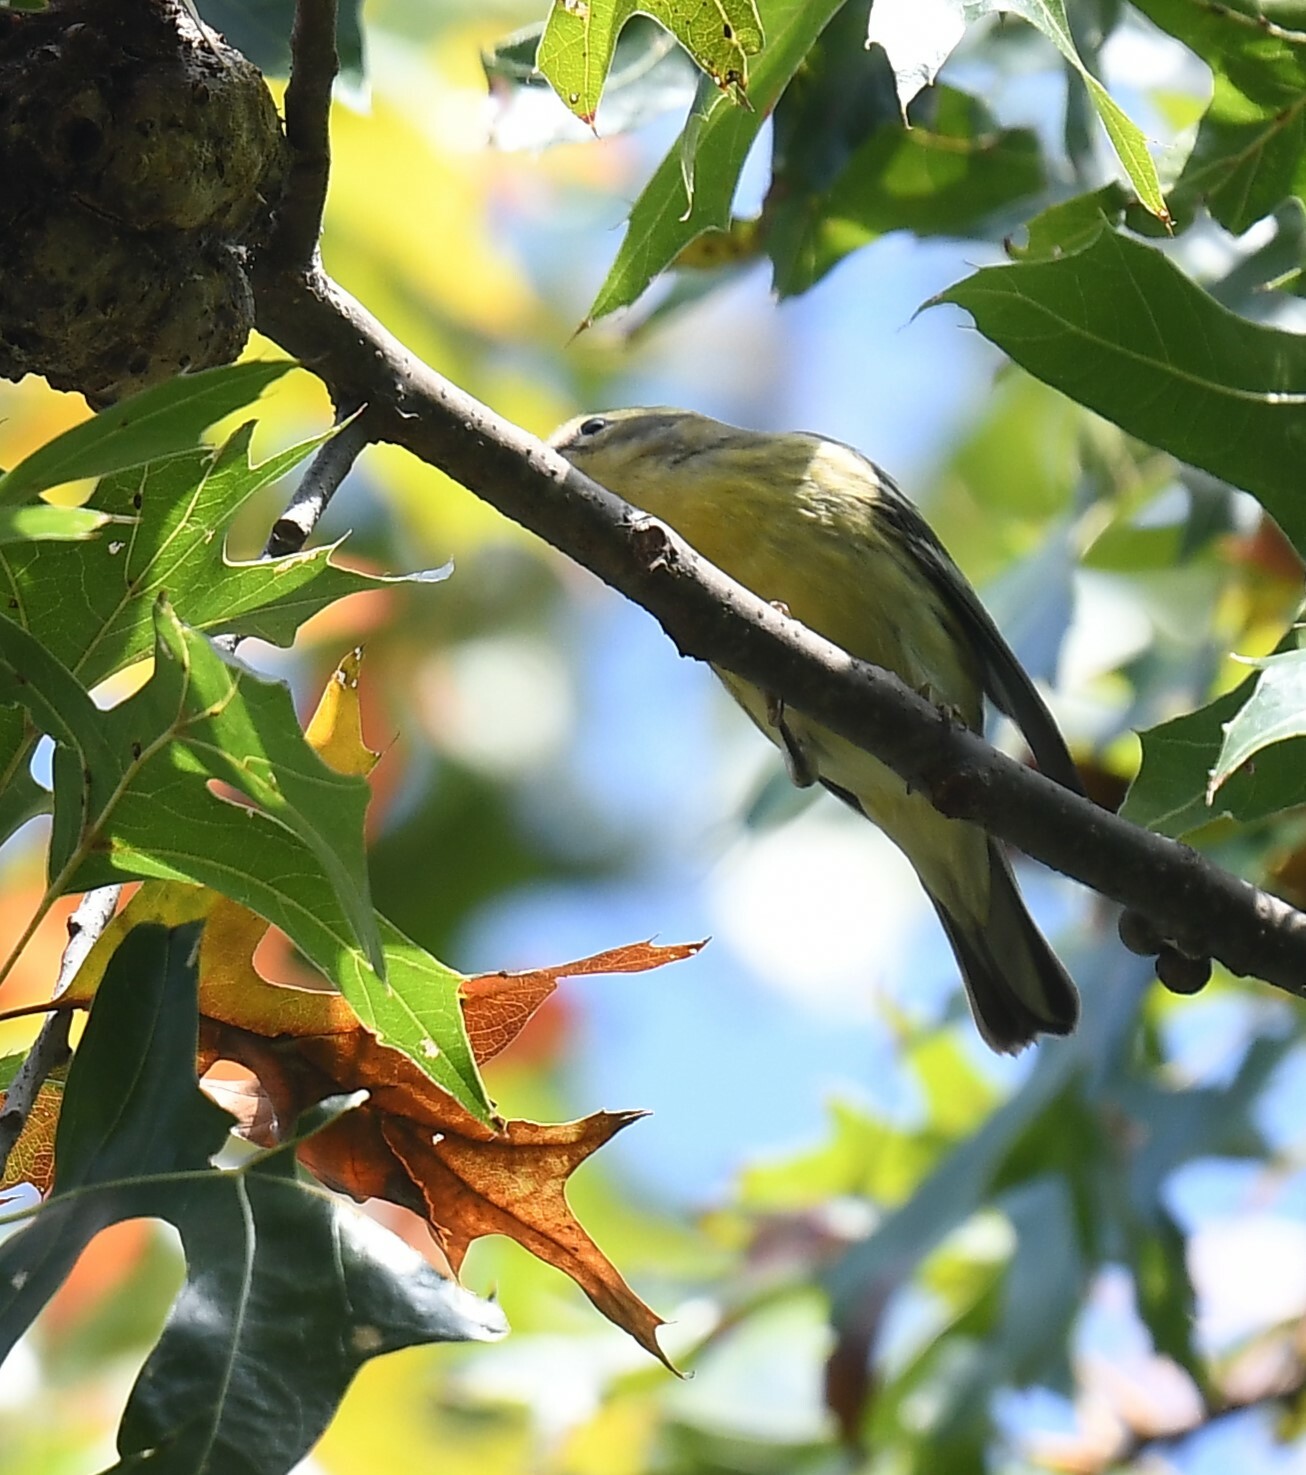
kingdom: Animalia
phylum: Chordata
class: Aves
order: Passeriformes
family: Parulidae
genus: Setophaga
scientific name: Setophaga fusca
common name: Blackburnian warbler
